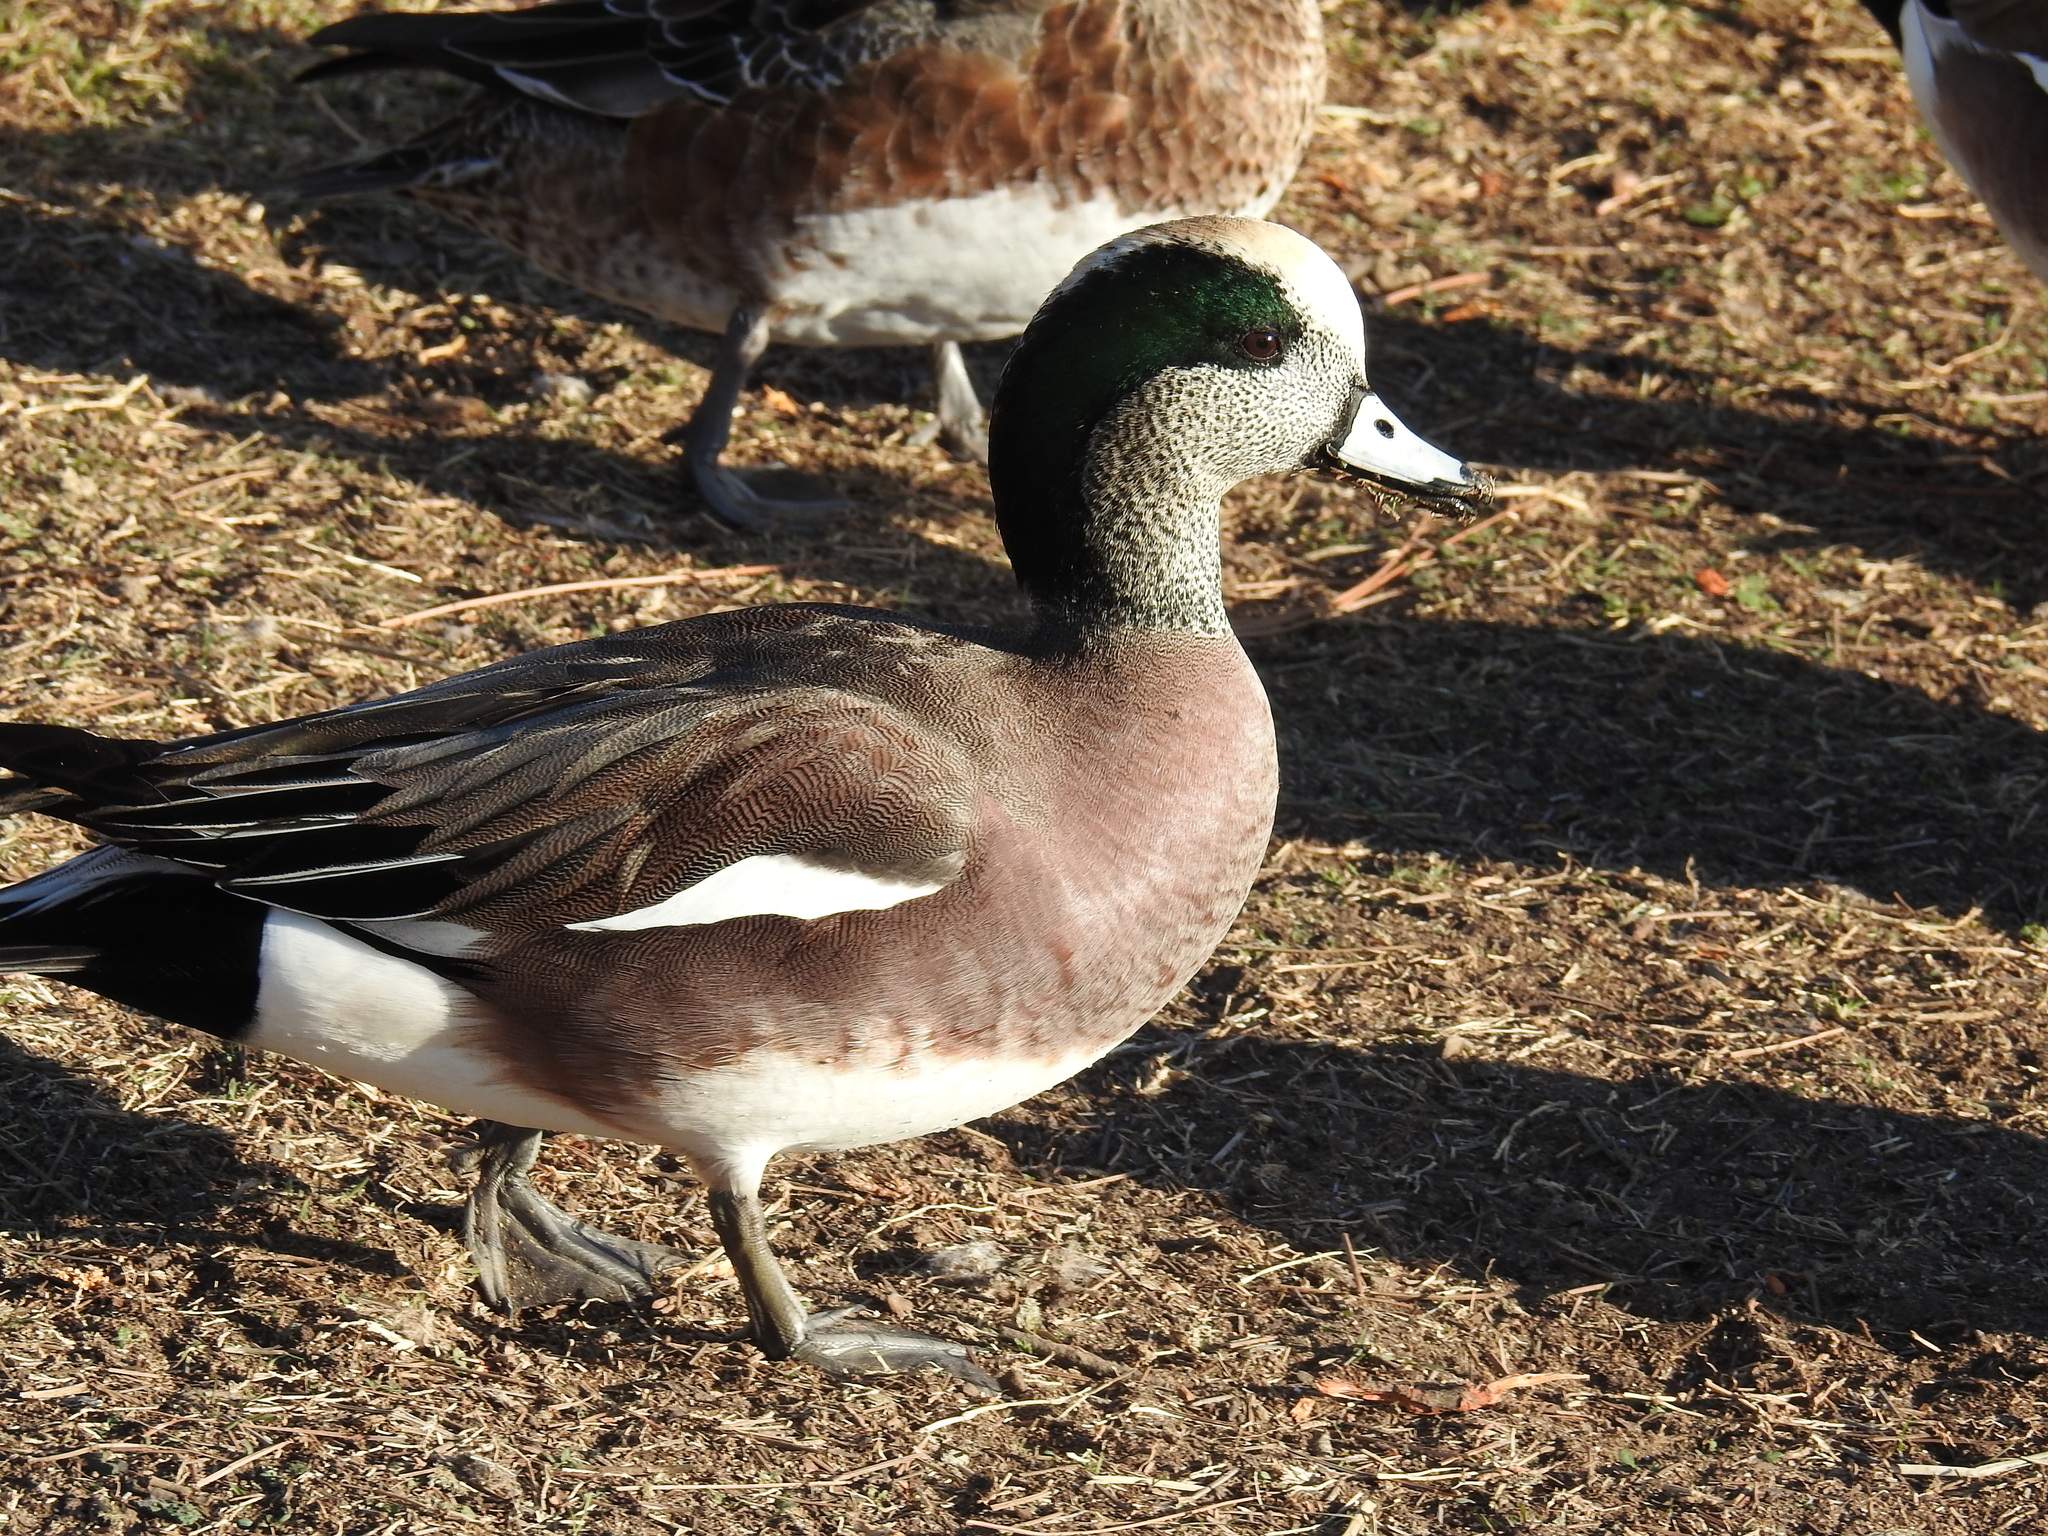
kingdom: Animalia
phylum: Chordata
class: Aves
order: Anseriformes
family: Anatidae
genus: Mareca
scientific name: Mareca americana
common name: American wigeon
